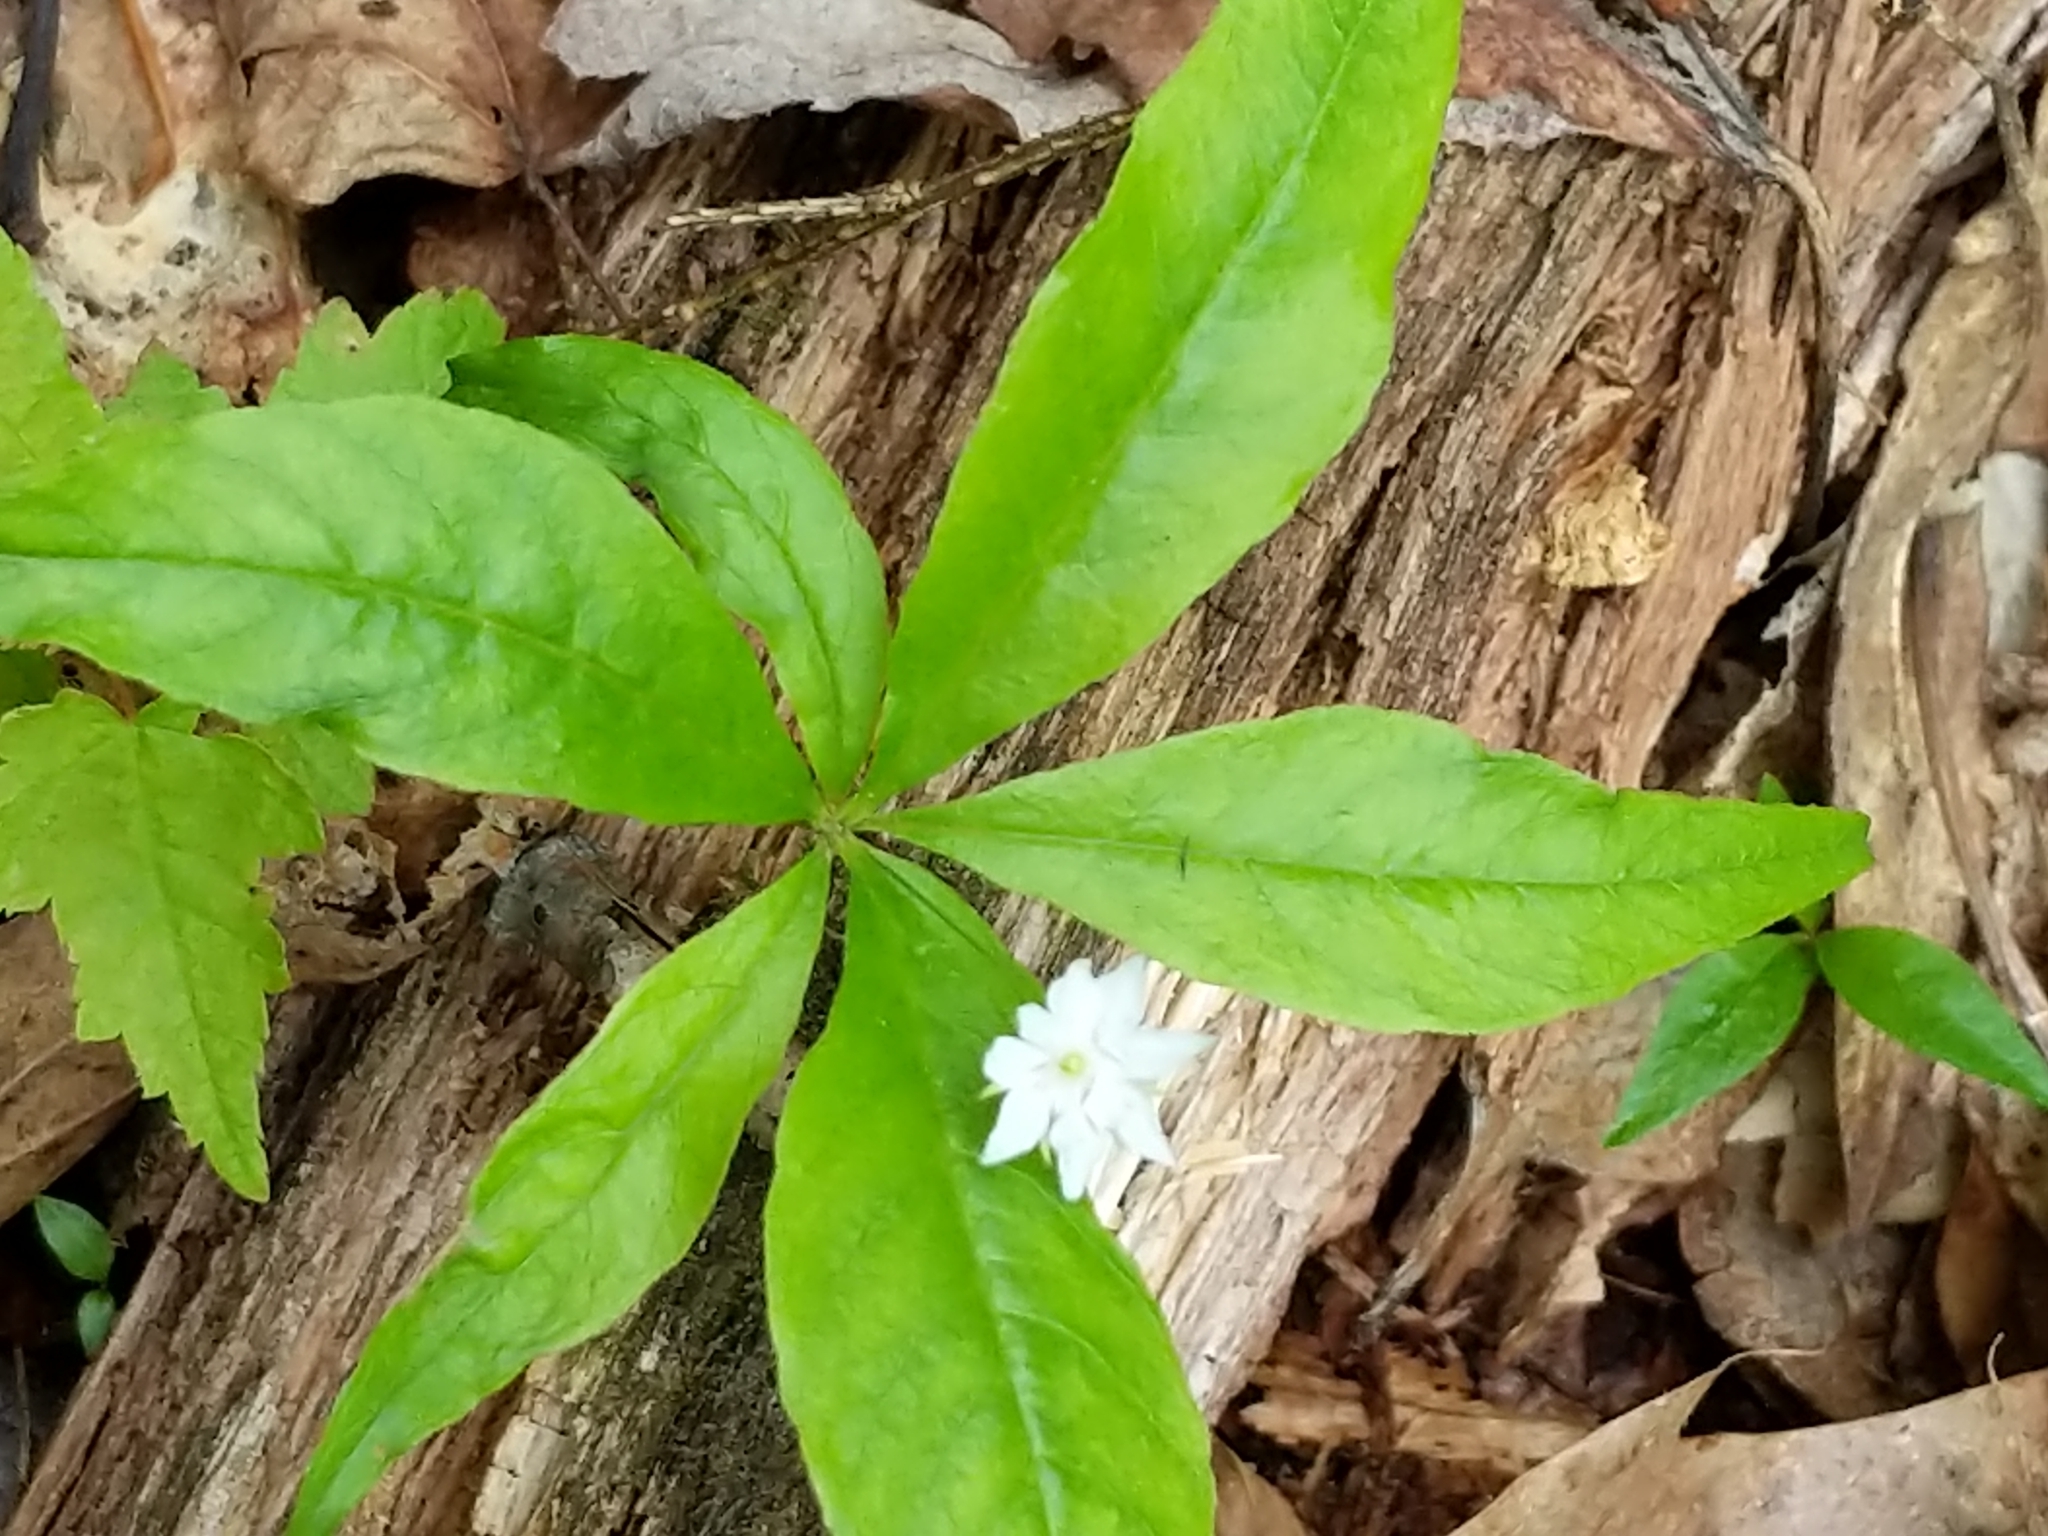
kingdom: Plantae
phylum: Tracheophyta
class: Magnoliopsida
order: Ericales
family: Primulaceae
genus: Lysimachia
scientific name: Lysimachia borealis
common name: American starflower
